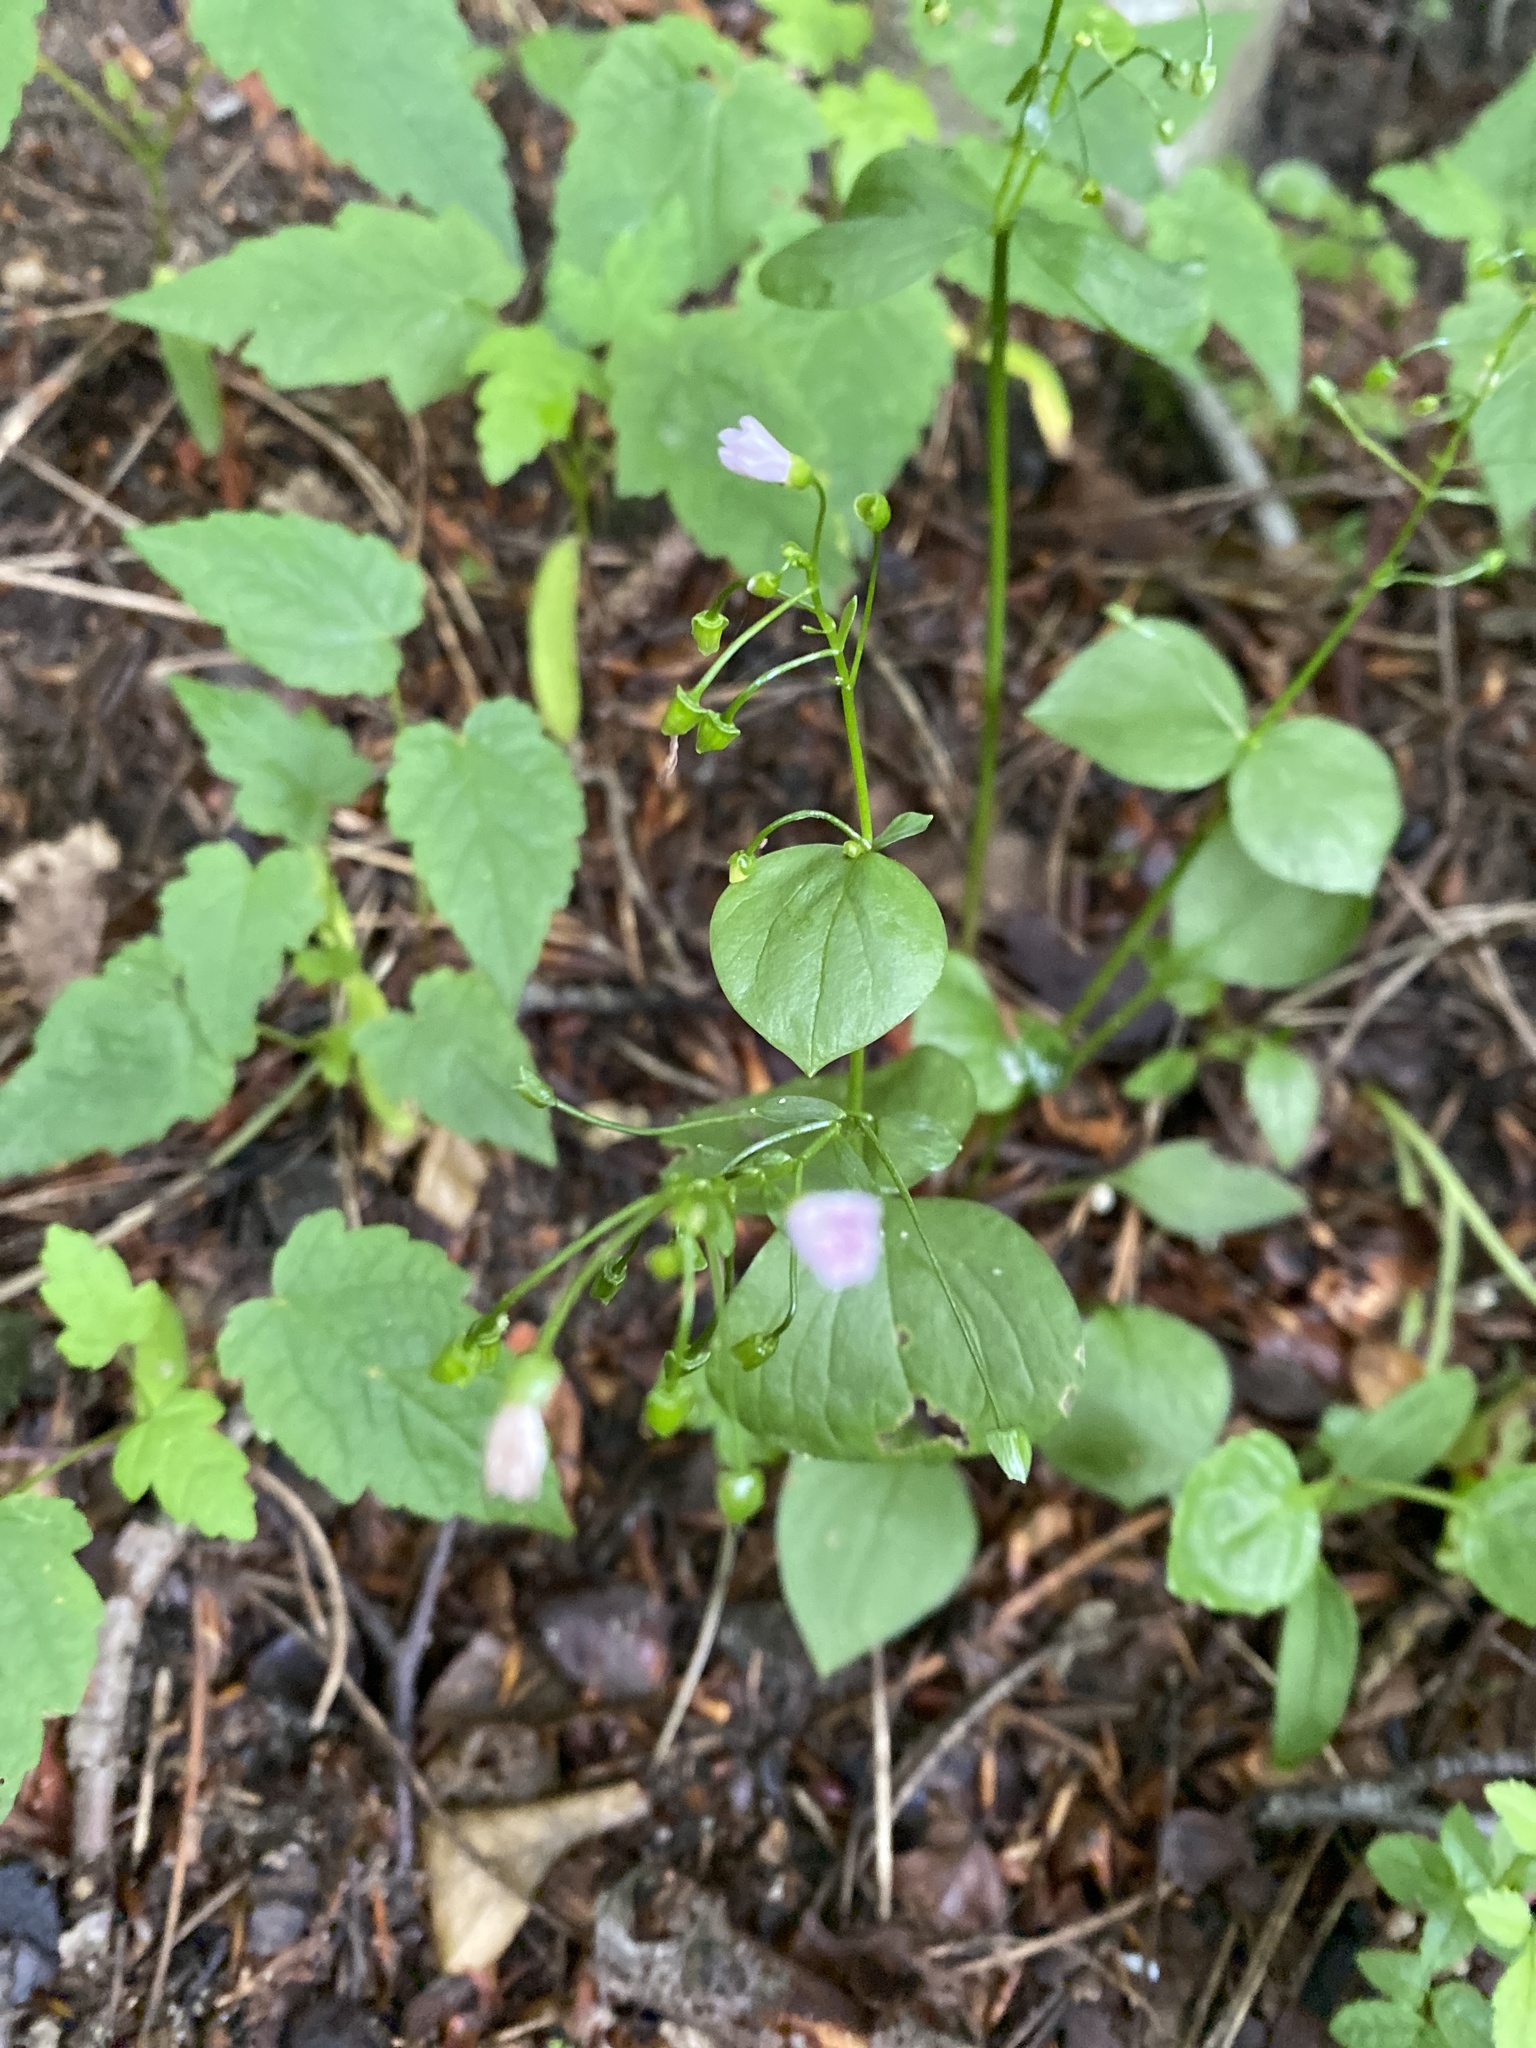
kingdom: Plantae
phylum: Tracheophyta
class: Magnoliopsida
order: Caryophyllales
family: Montiaceae
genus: Claytonia
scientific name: Claytonia sibirica
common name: Pink purslane
